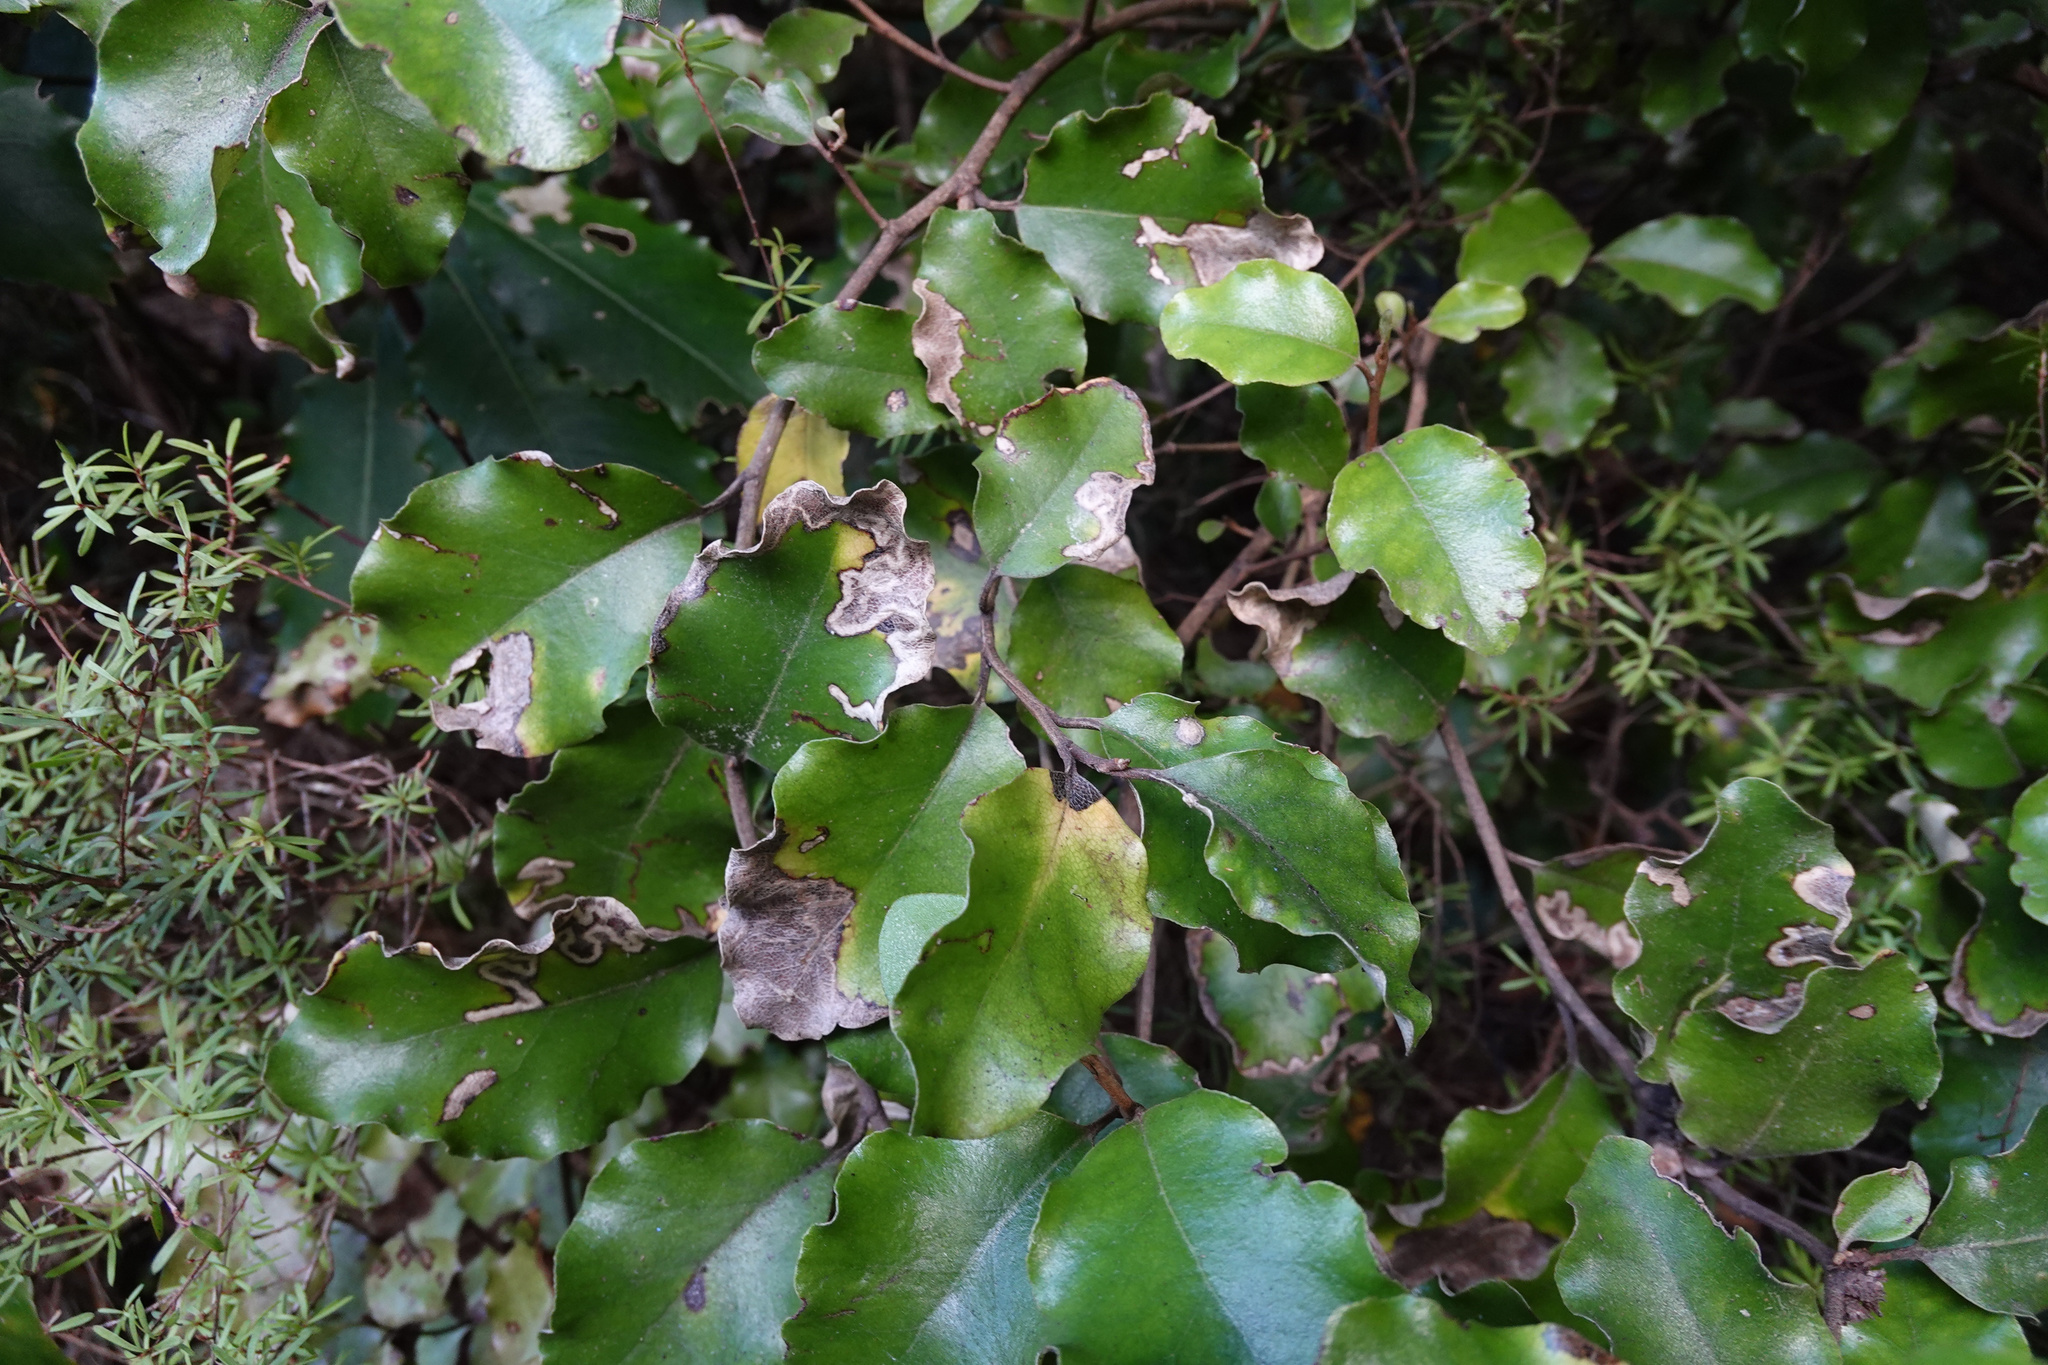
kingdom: Plantae
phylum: Tracheophyta
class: Magnoliopsida
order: Asterales
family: Asteraceae
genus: Olearia
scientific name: Olearia paniculata
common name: Akiraho
